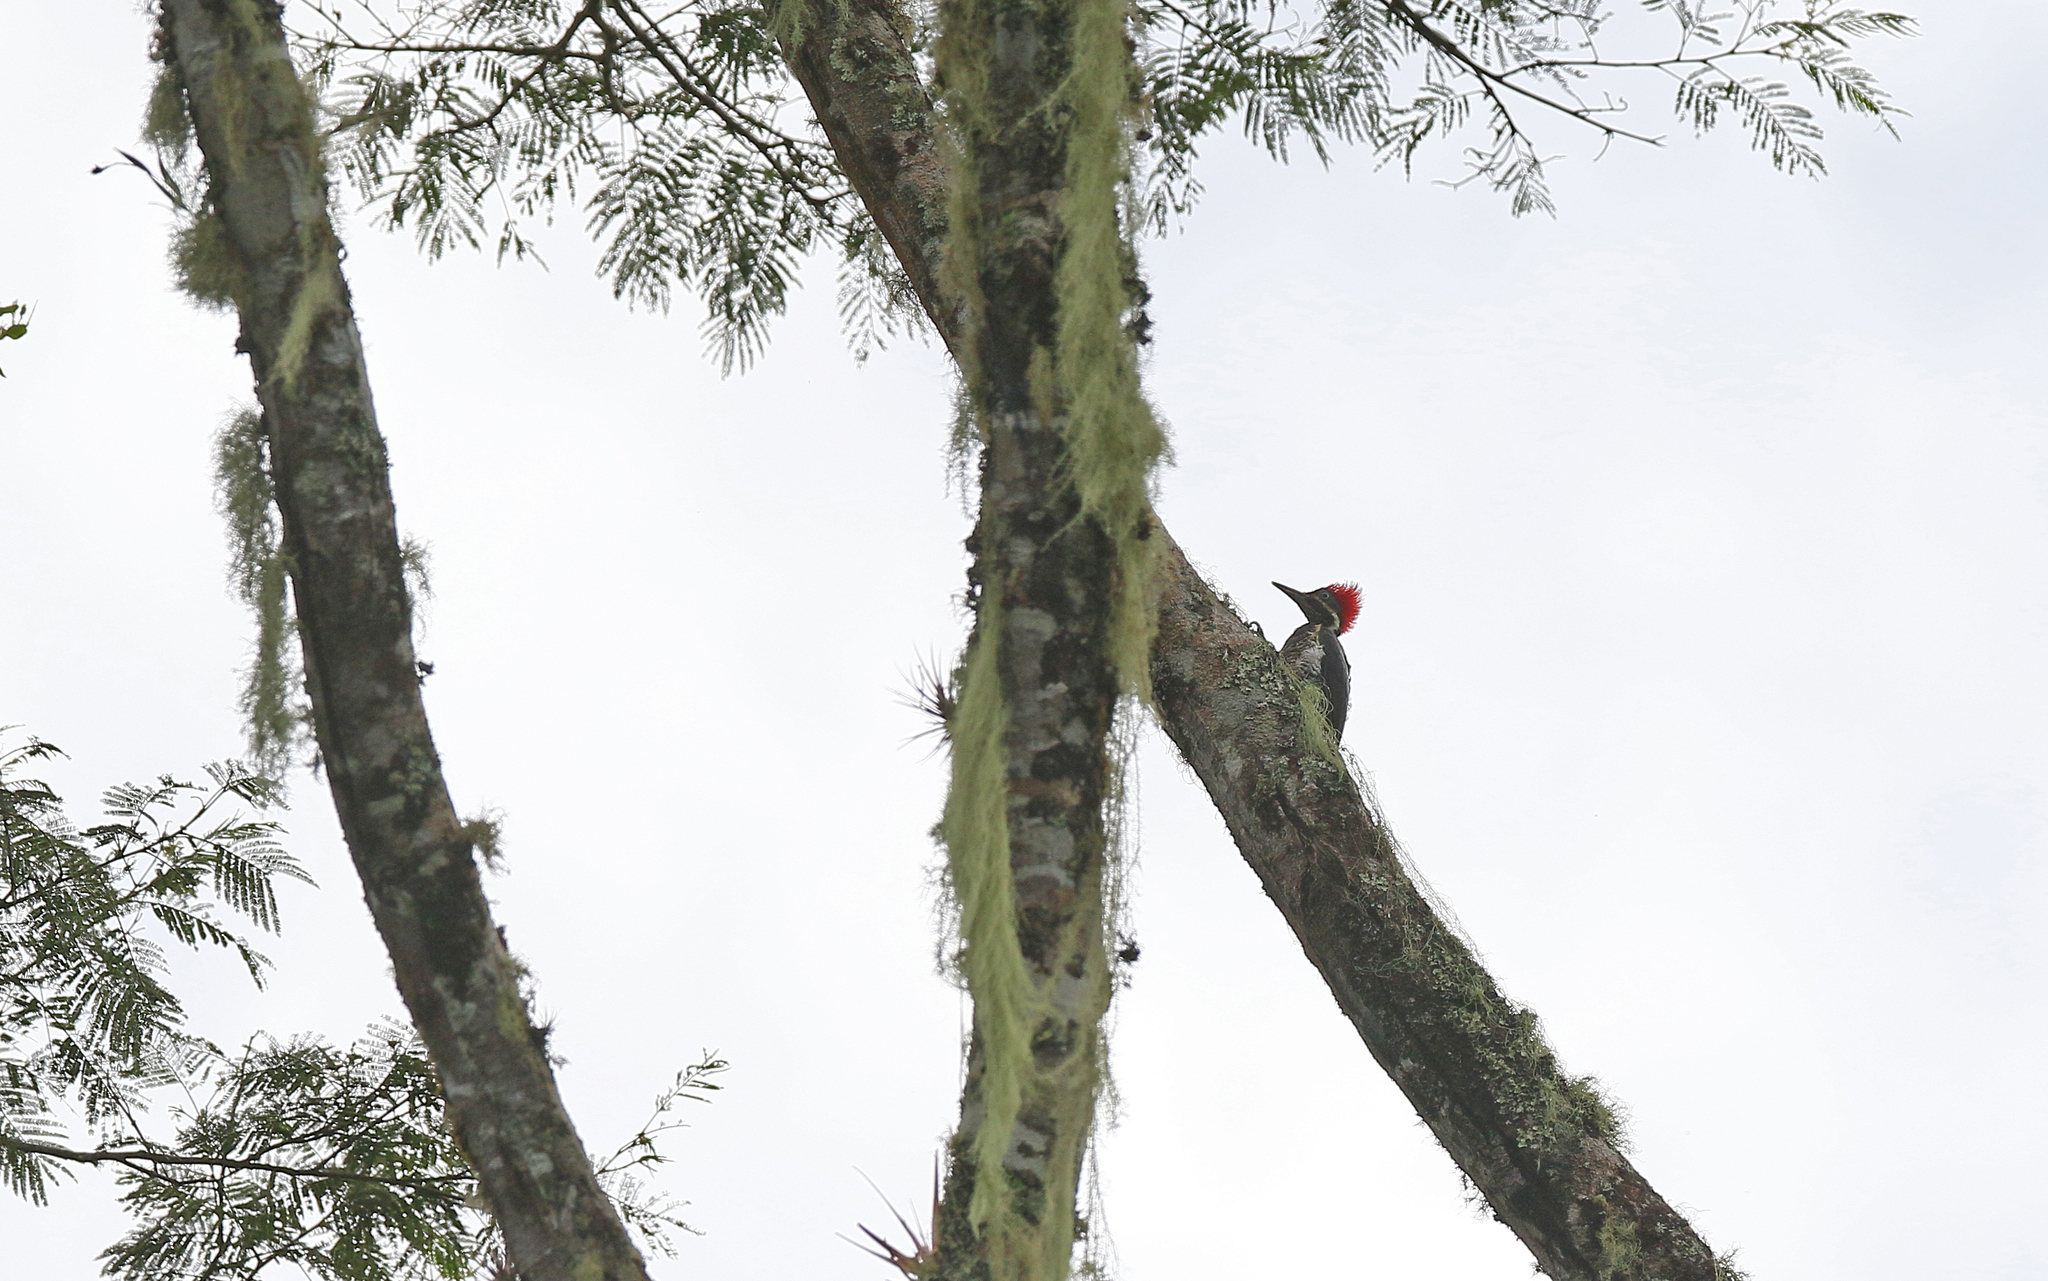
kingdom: Animalia
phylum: Chordata
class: Aves
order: Piciformes
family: Picidae
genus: Dryocopus
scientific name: Dryocopus lineatus
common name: Lineated woodpecker
